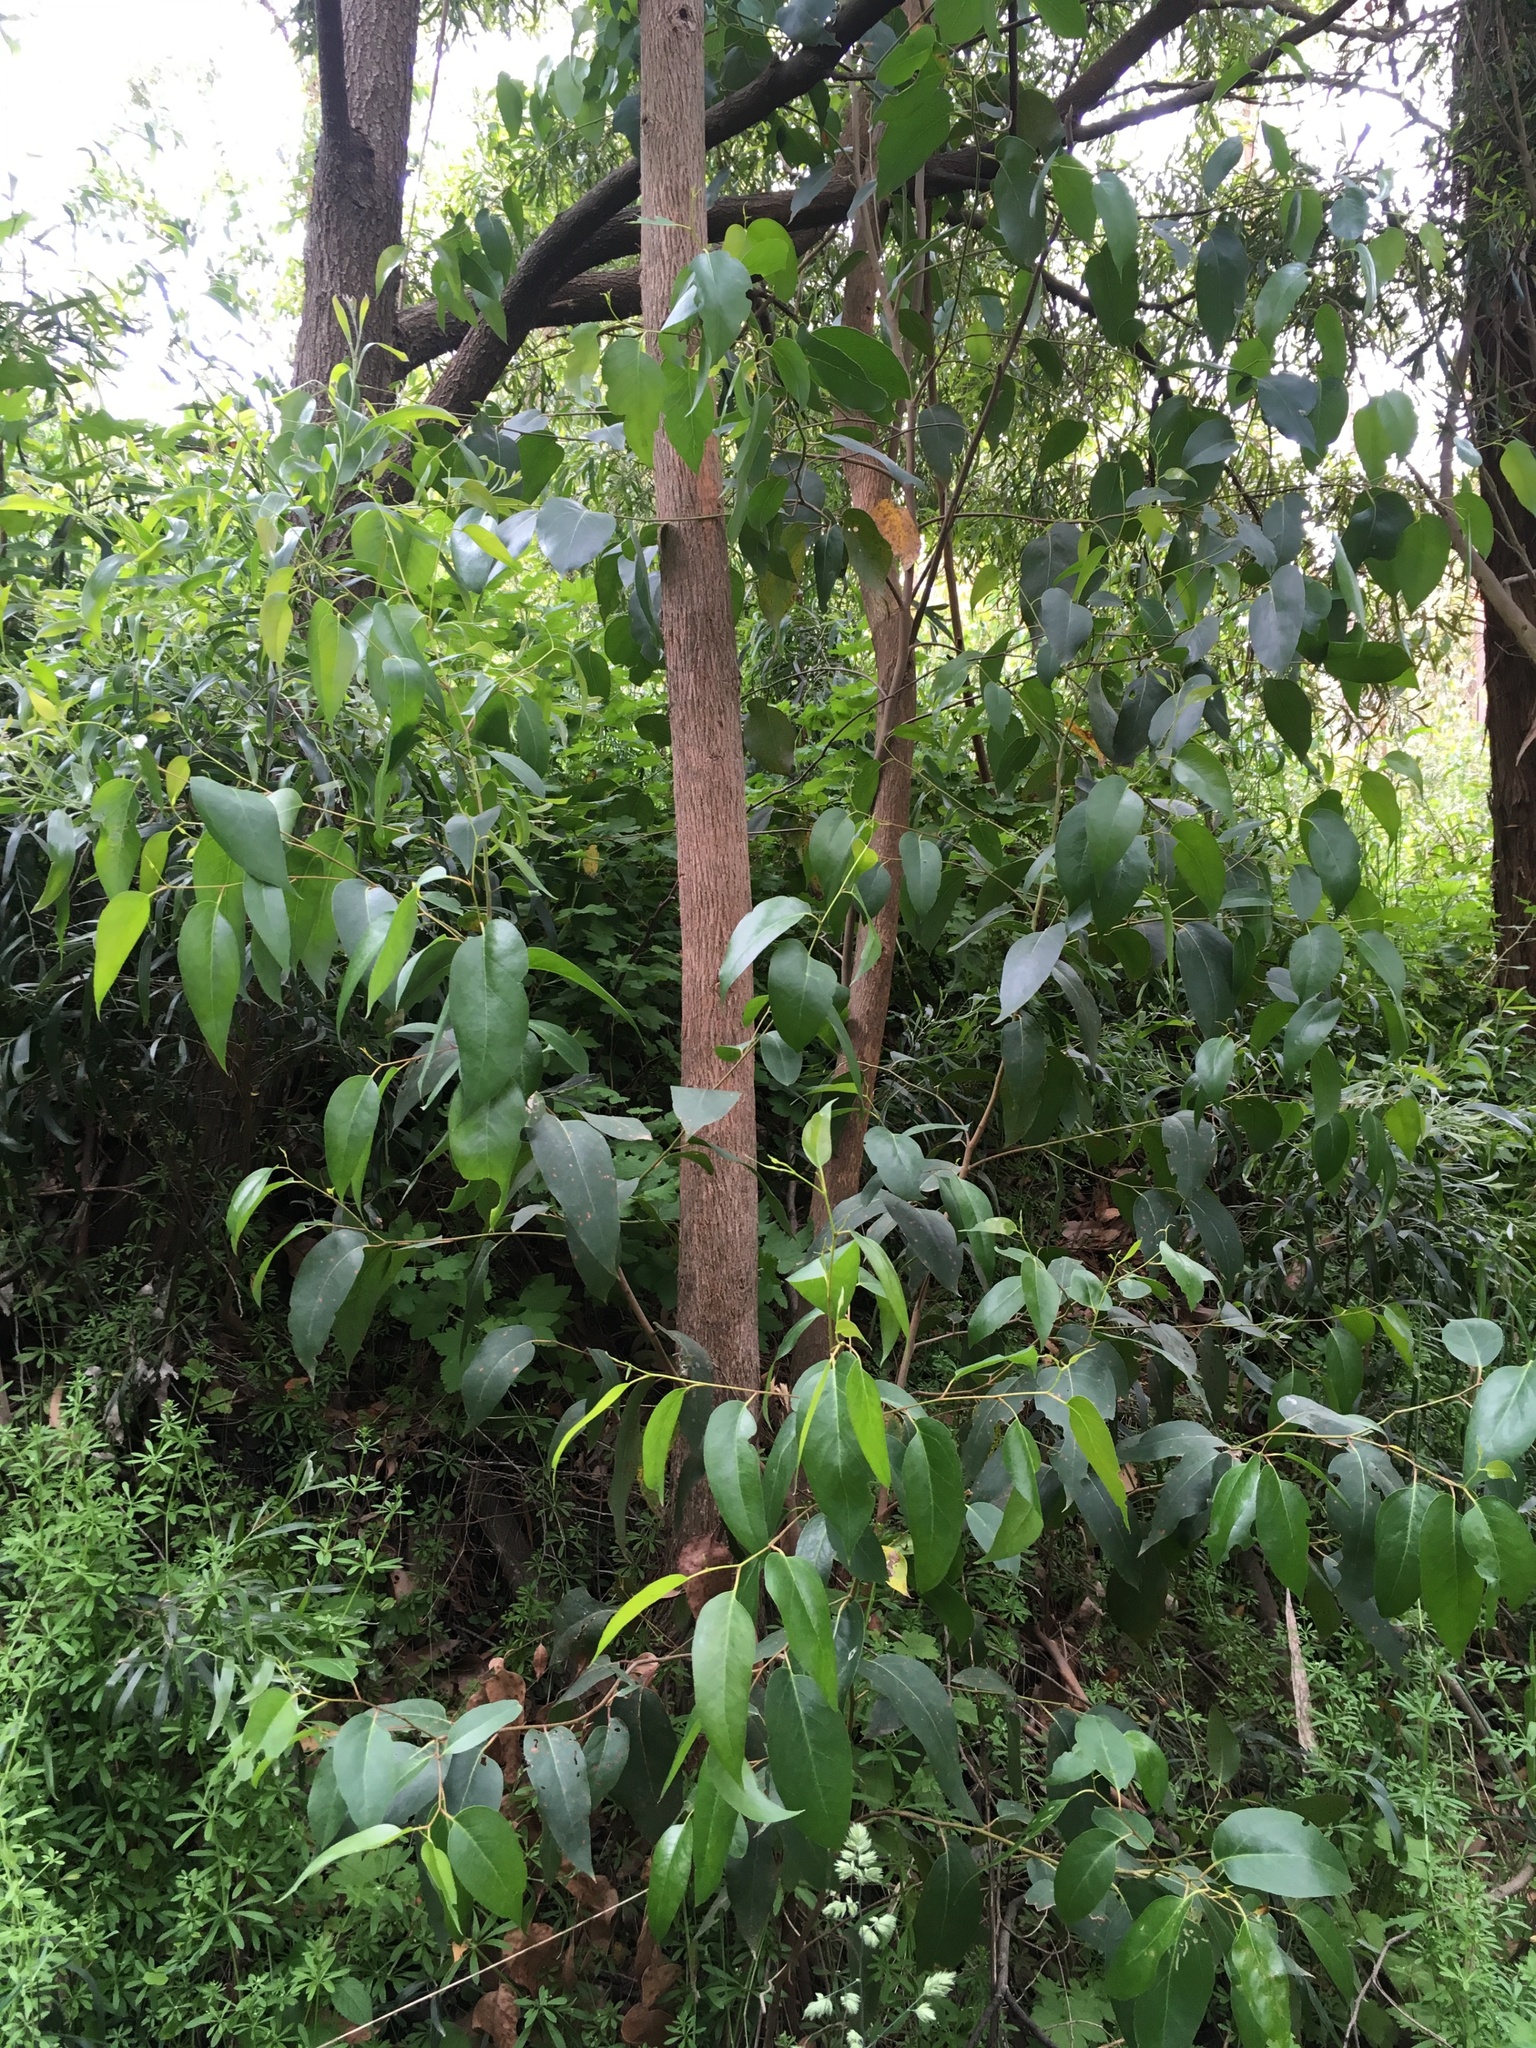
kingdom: Plantae
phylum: Tracheophyta
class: Magnoliopsida
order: Myrtales
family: Myrtaceae
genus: Eucalyptus
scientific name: Eucalyptus obliqua
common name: Messmate stringybark
